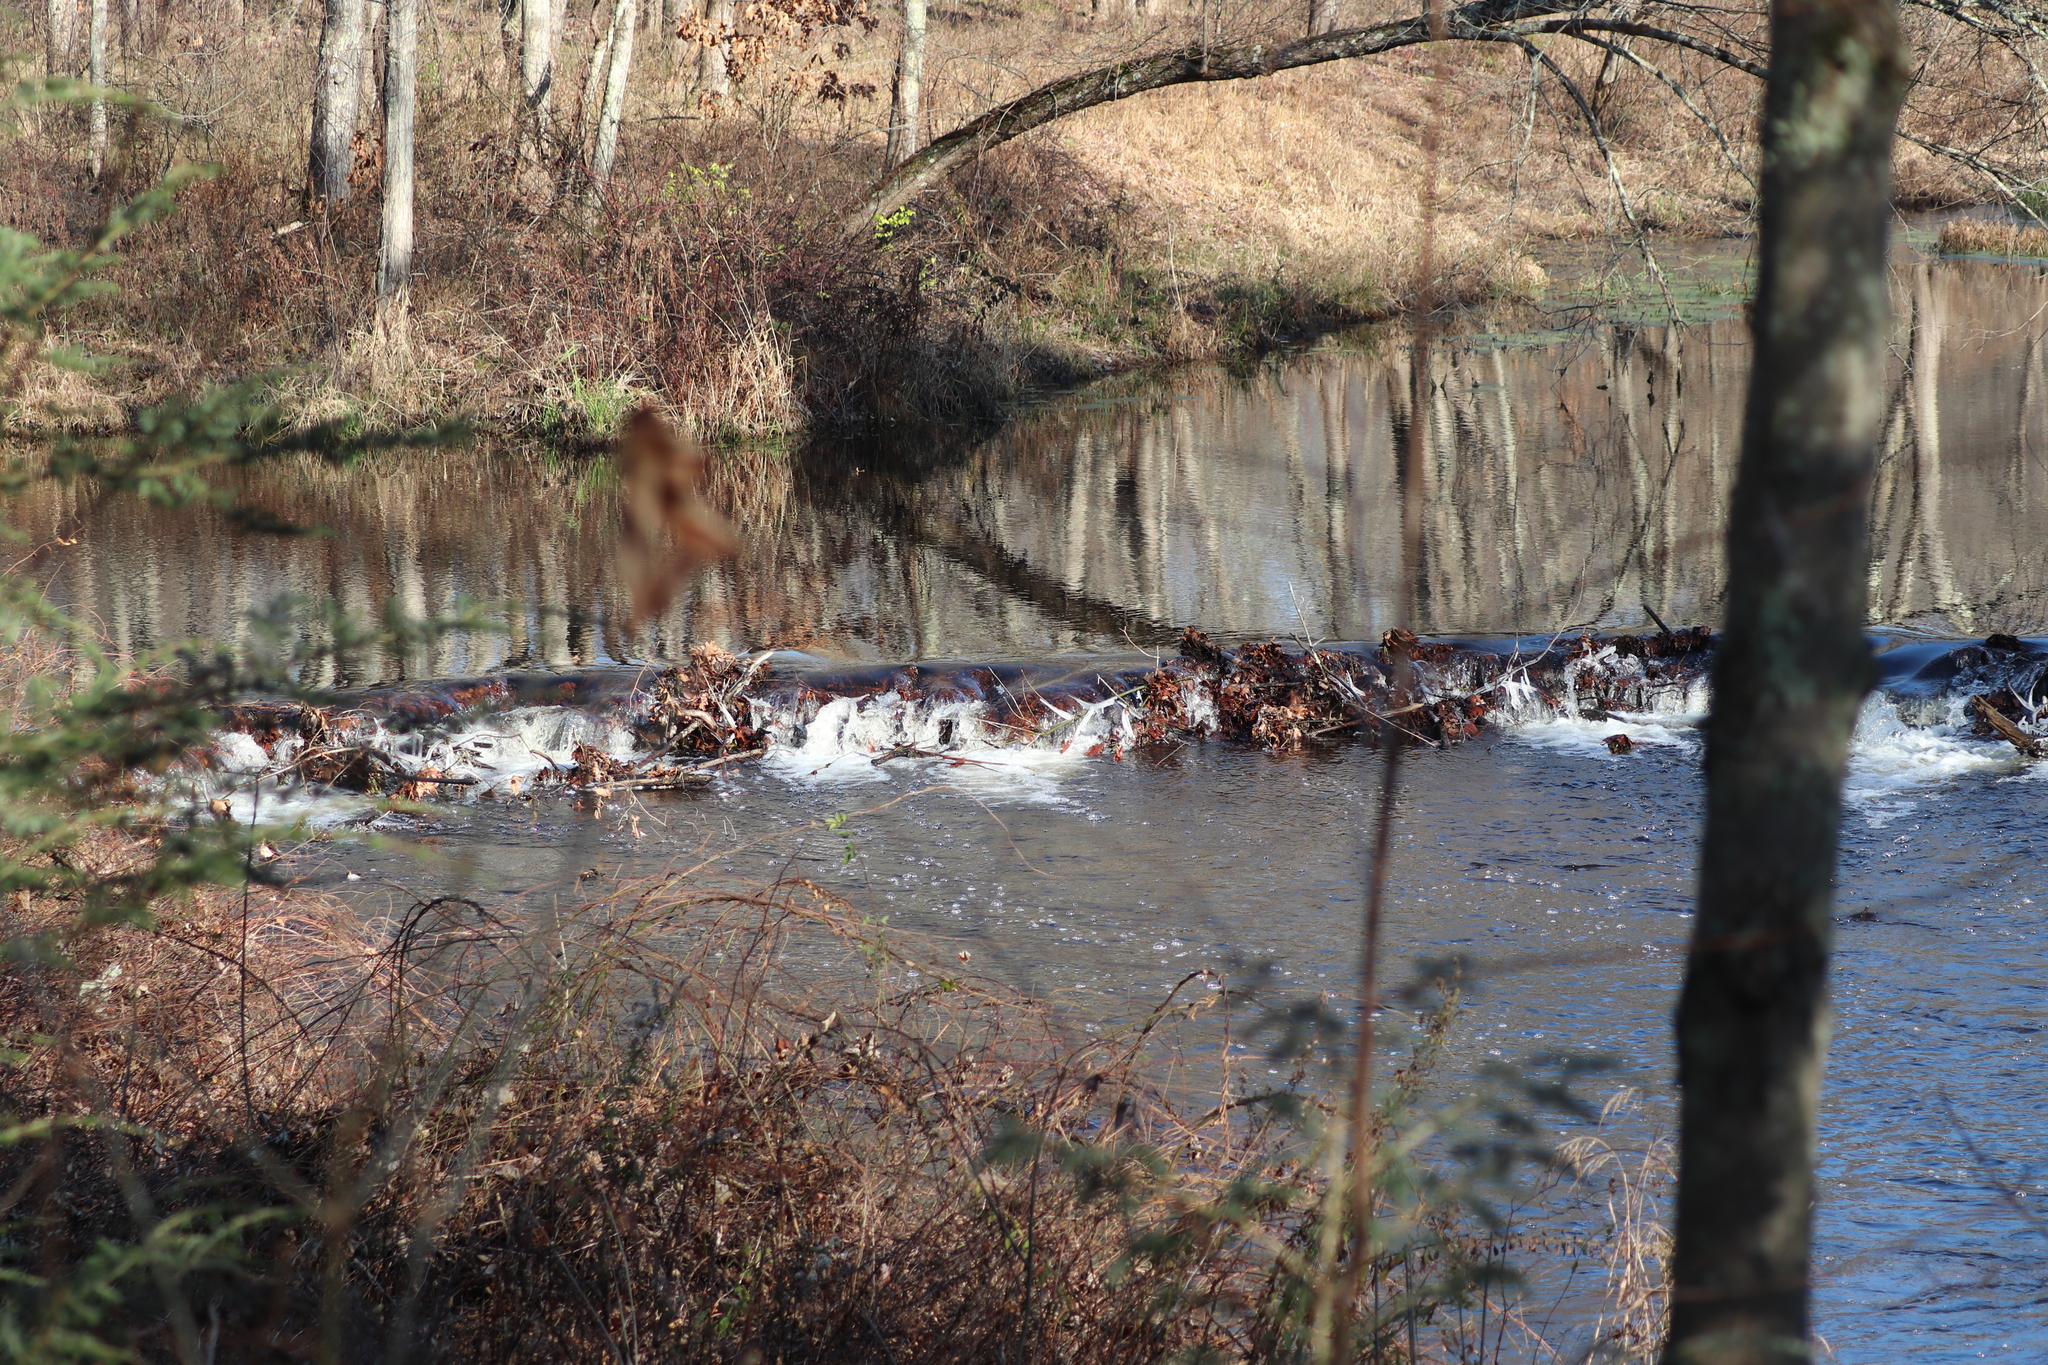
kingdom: Animalia
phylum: Chordata
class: Mammalia
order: Rodentia
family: Castoridae
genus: Castor
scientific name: Castor canadensis
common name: American beaver
